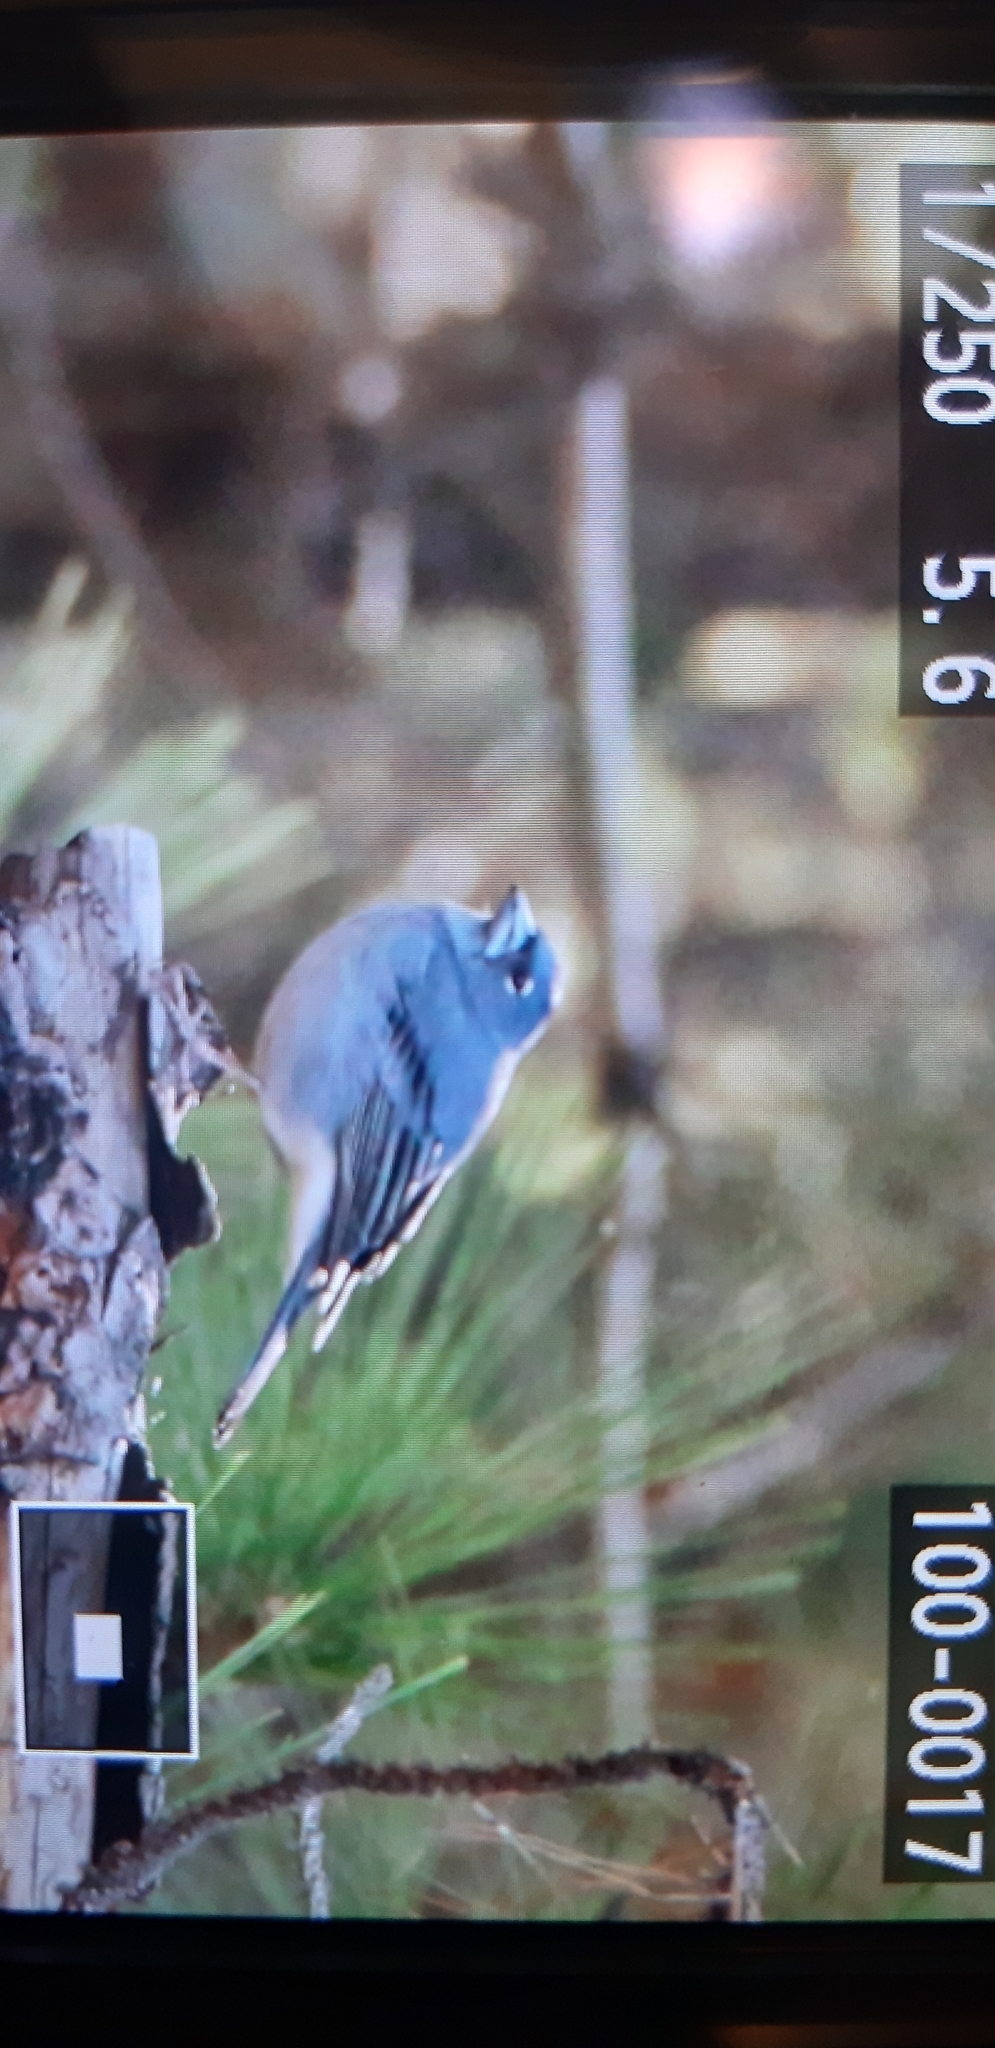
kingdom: Animalia
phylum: Chordata
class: Aves
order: Passeriformes
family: Fringillidae
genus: Fringilla
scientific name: Fringilla teydea
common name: Blue chaffinch
